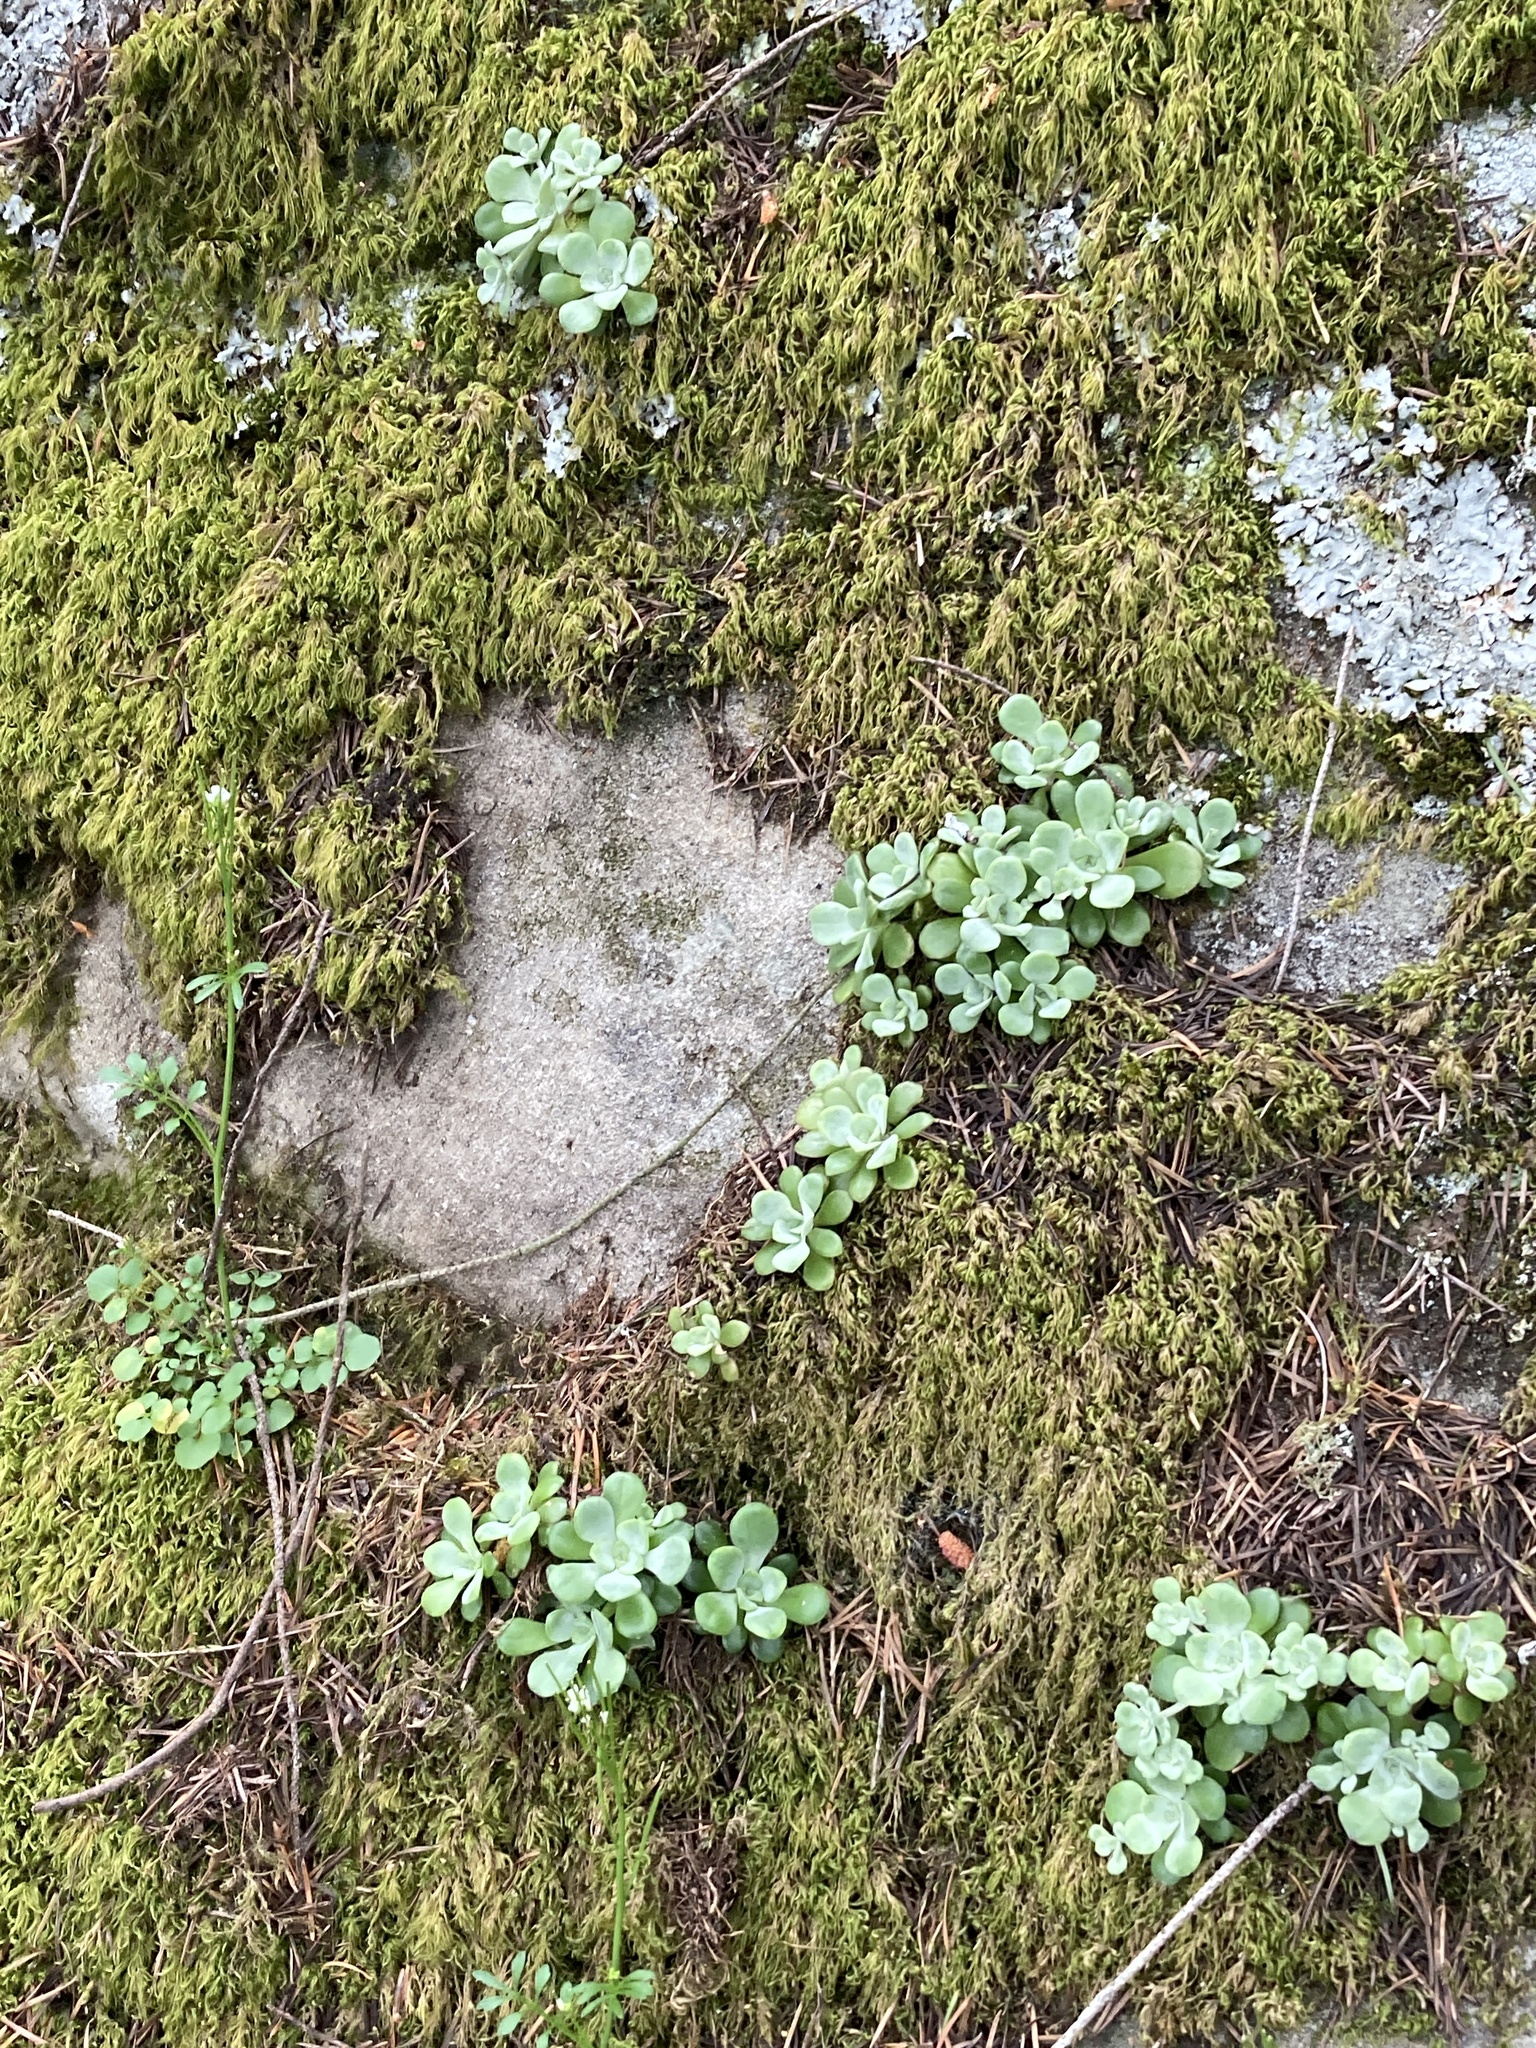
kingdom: Plantae
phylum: Tracheophyta
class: Magnoliopsida
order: Saxifragales
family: Crassulaceae
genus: Sedum
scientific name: Sedum spathulifolium
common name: Colorado stonecrop
